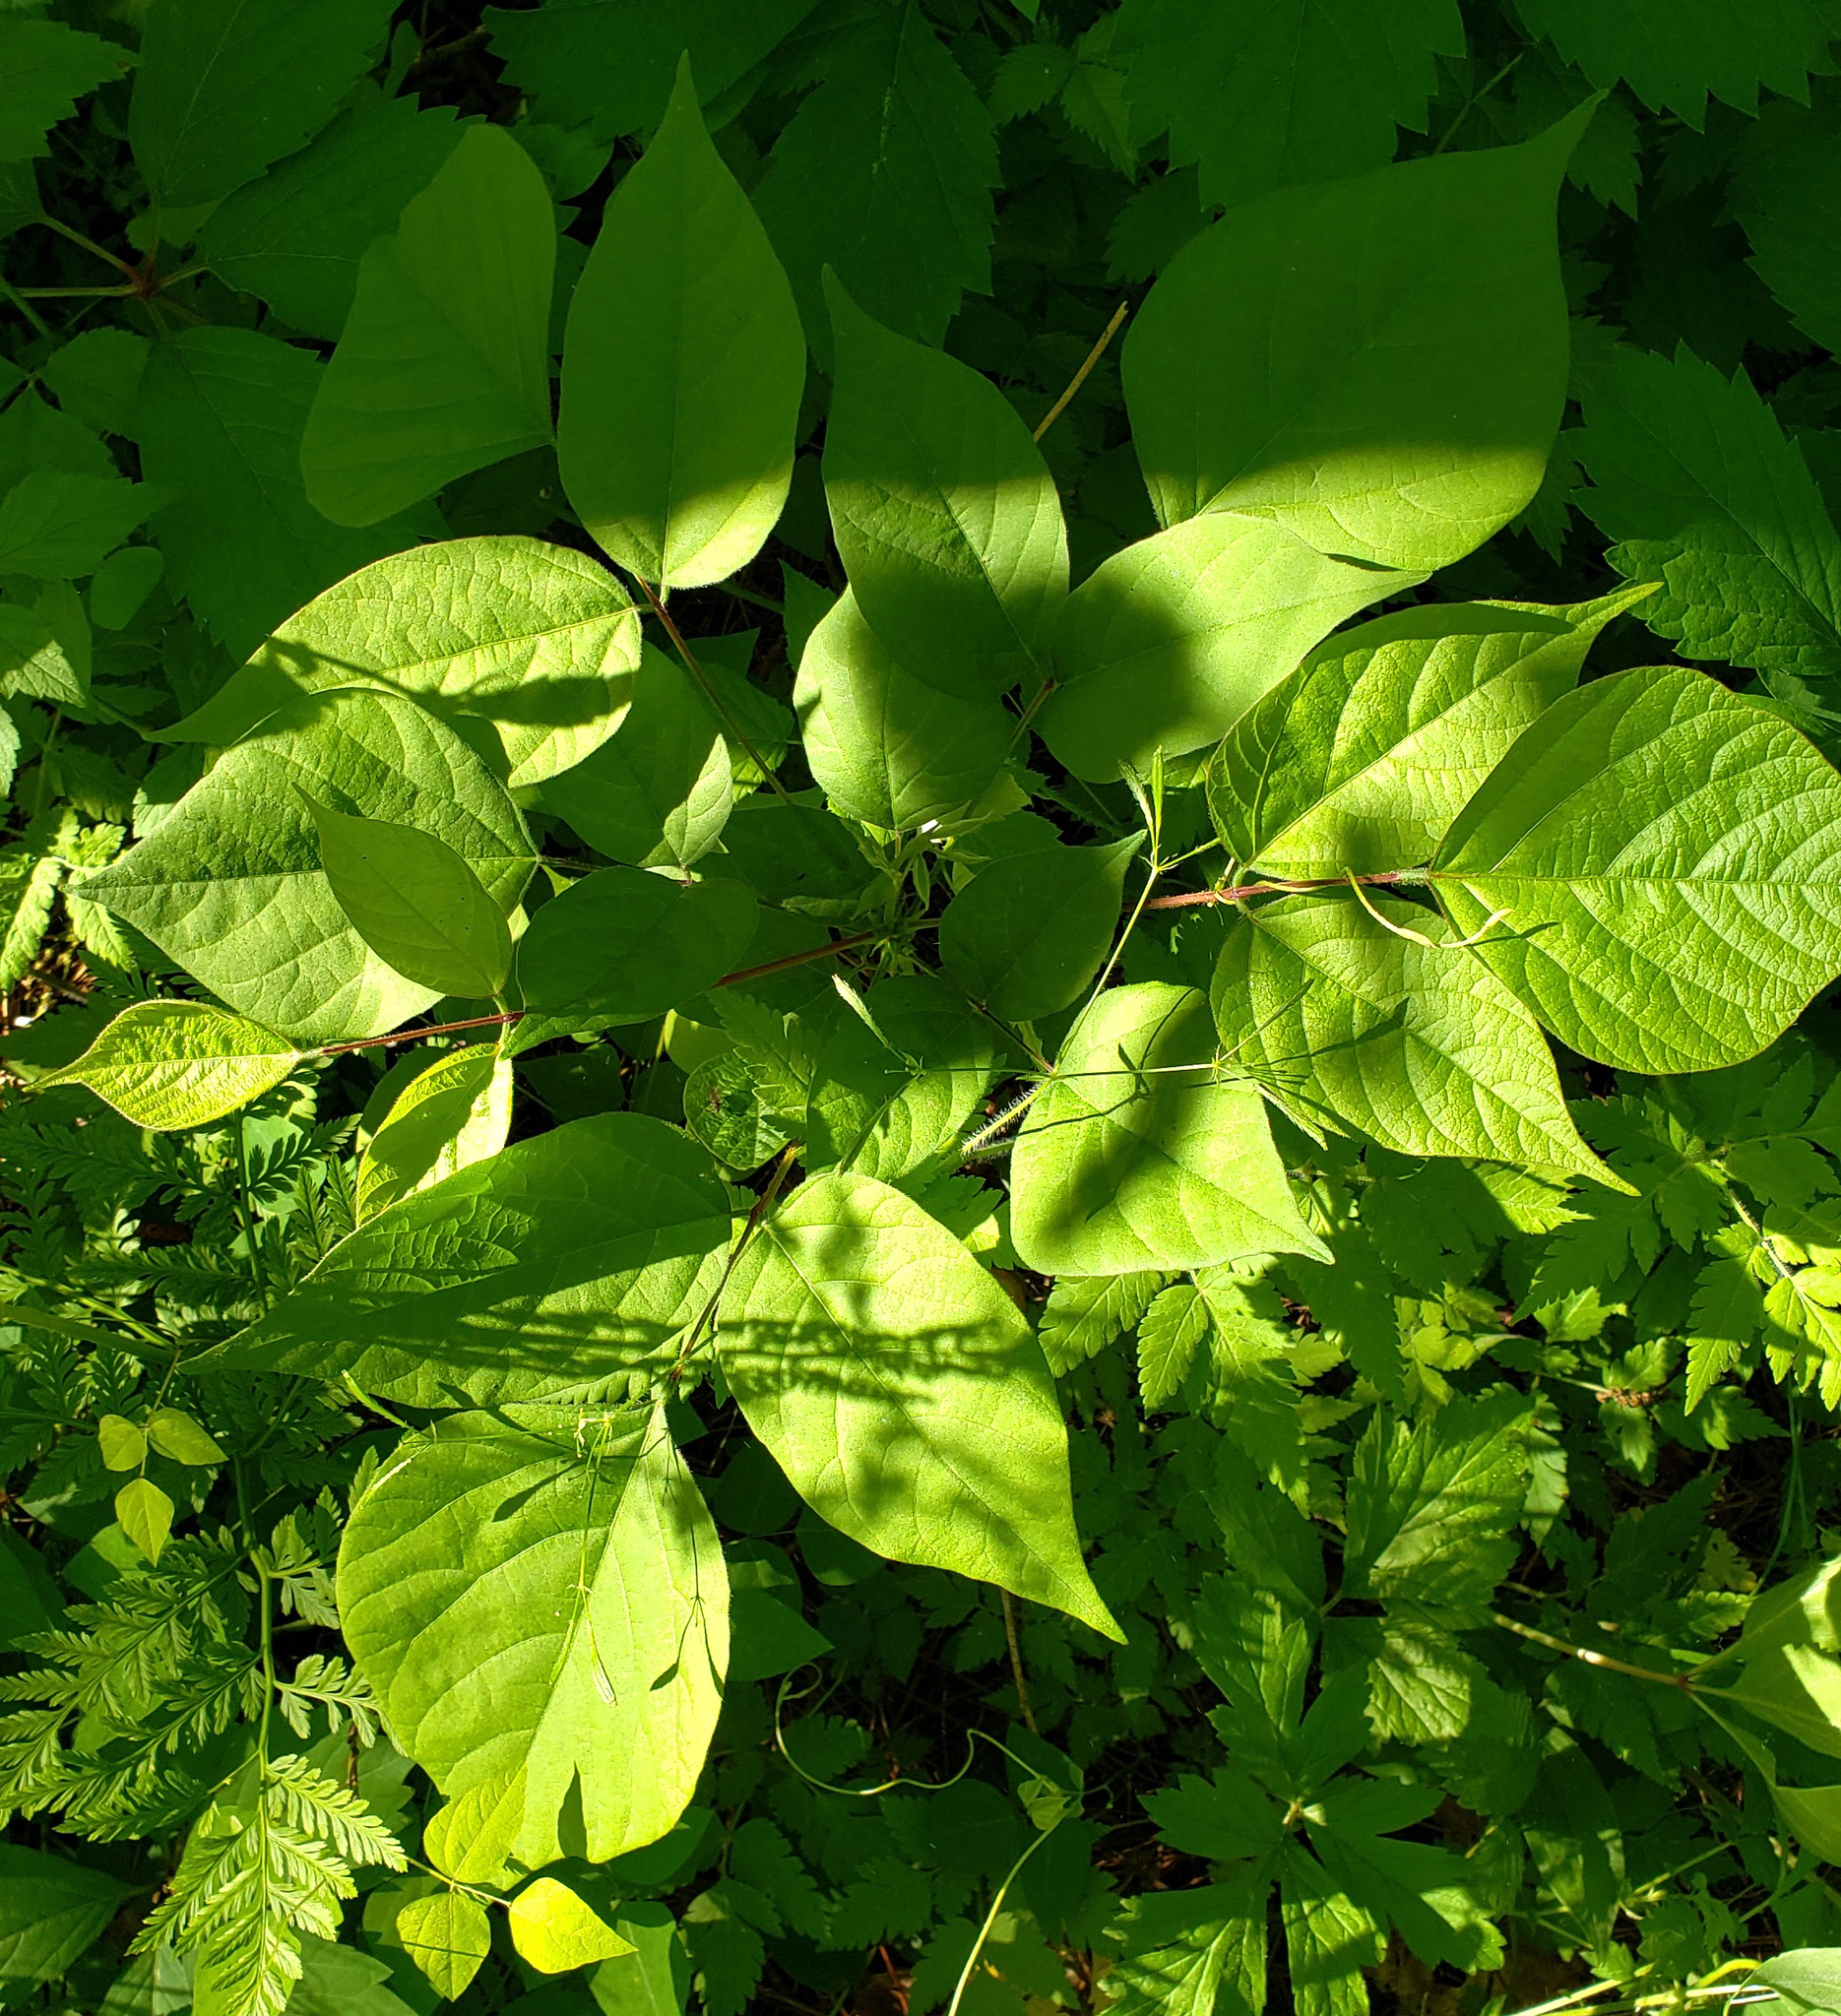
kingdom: Plantae
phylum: Tracheophyta
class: Magnoliopsida
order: Fabales
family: Fabaceae
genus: Hylodesmum
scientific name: Hylodesmum glutinosum
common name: Clustered-leaved tick-trefoil
